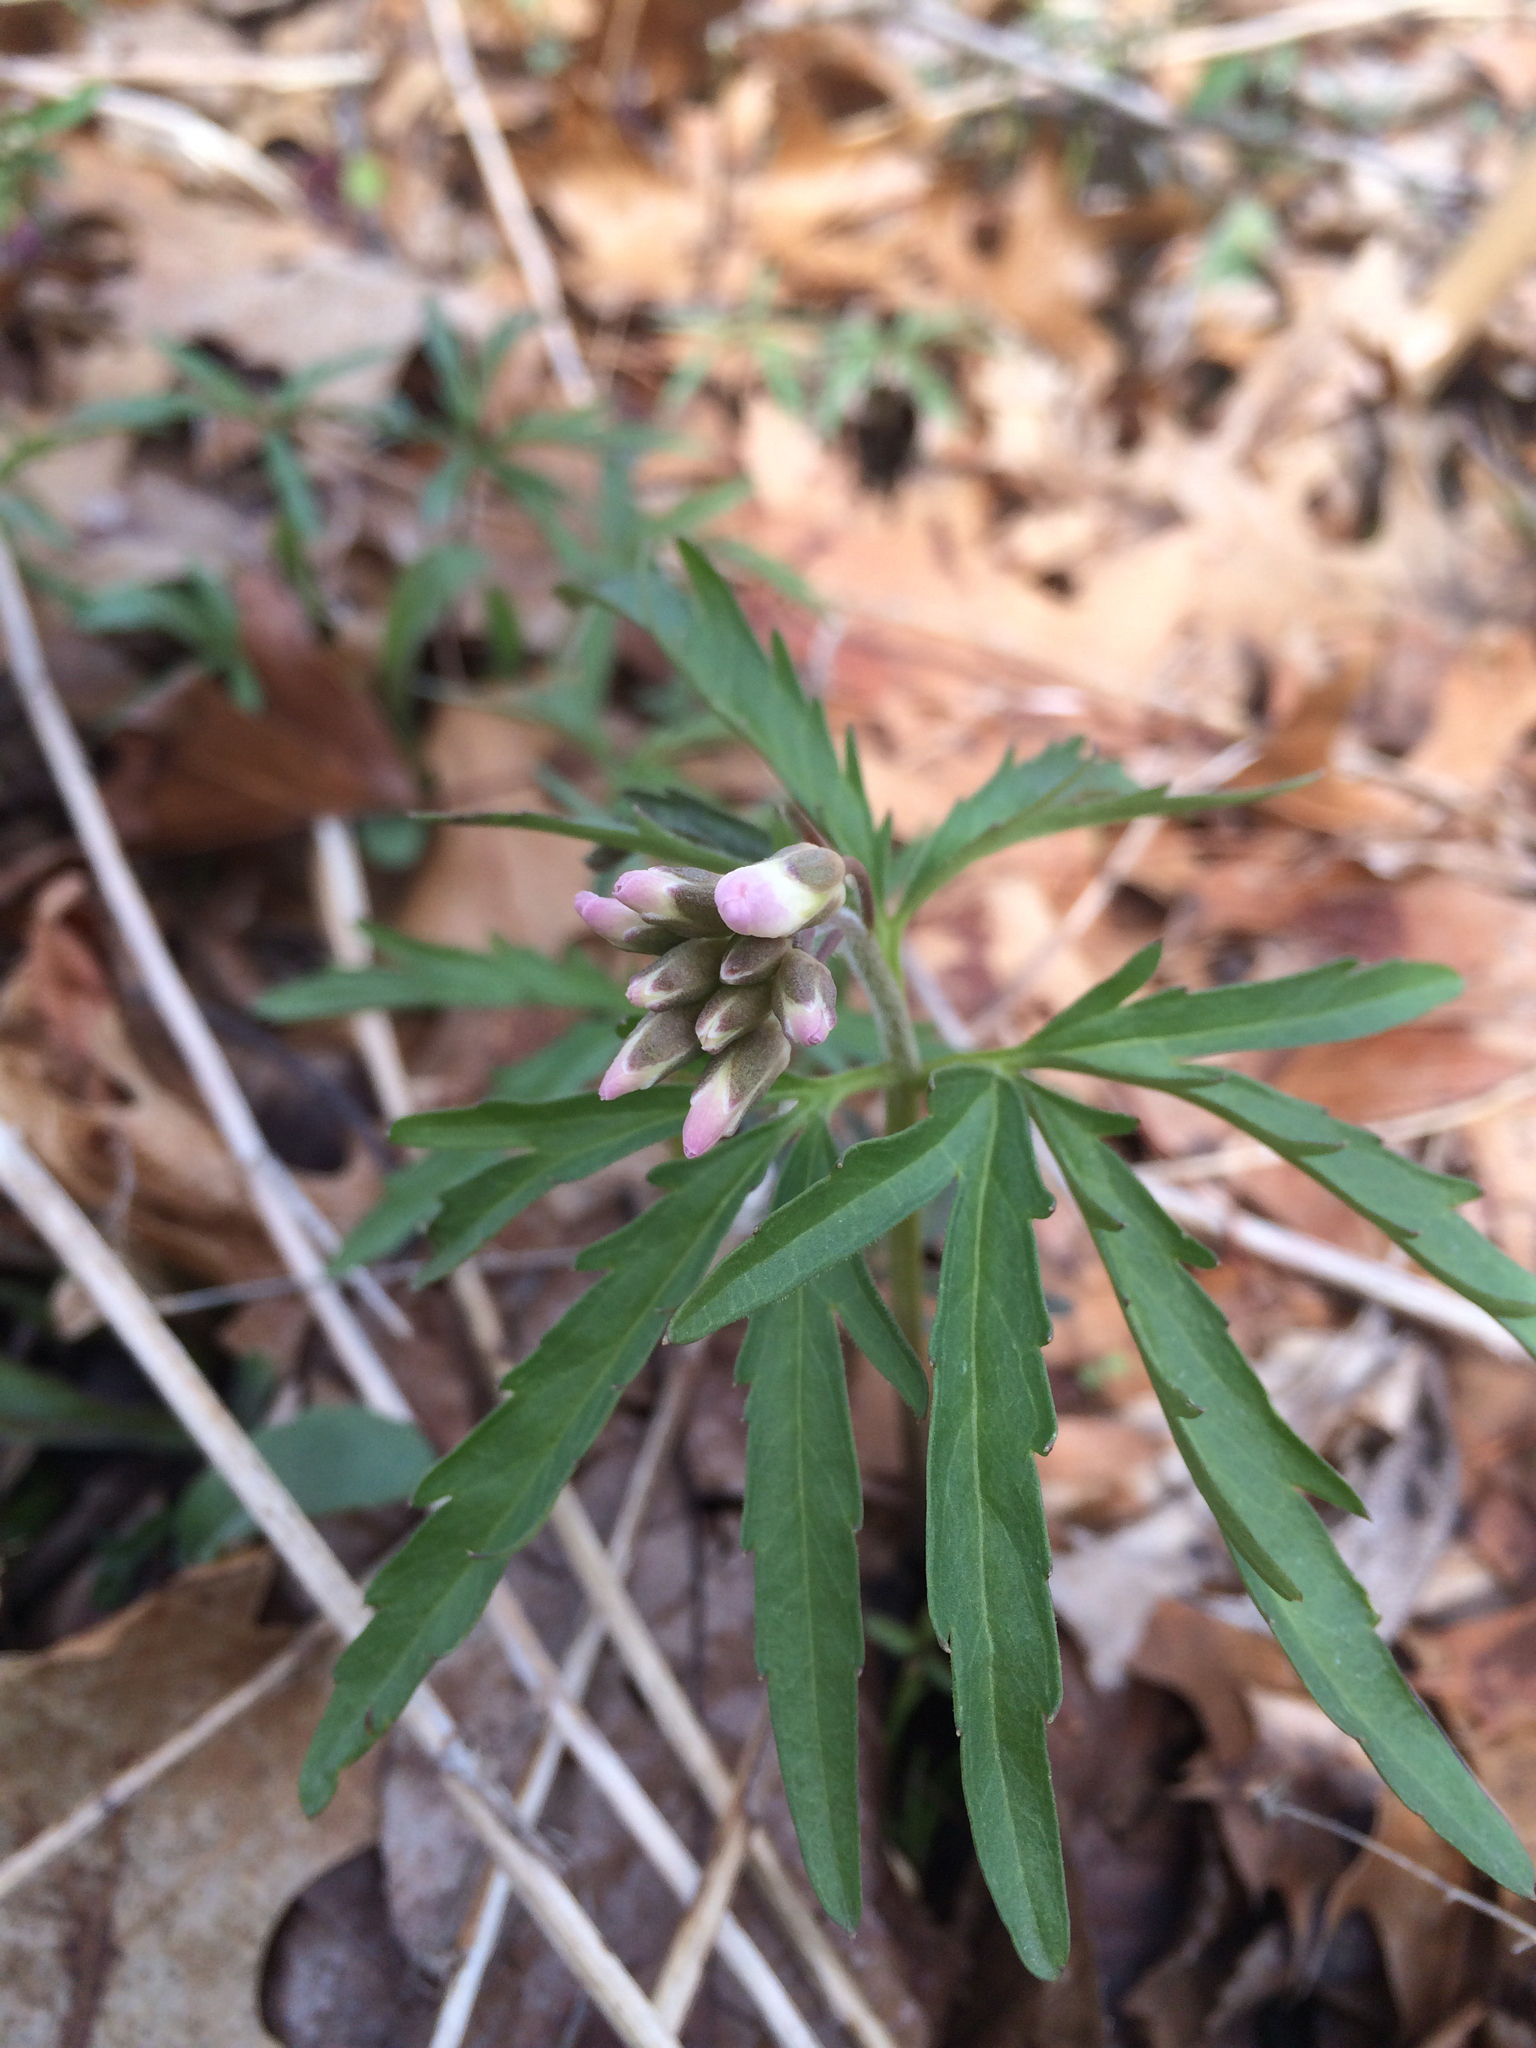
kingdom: Plantae
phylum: Tracheophyta
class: Magnoliopsida
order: Brassicales
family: Brassicaceae
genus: Cardamine
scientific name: Cardamine concatenata
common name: Cut-leaf toothcup
